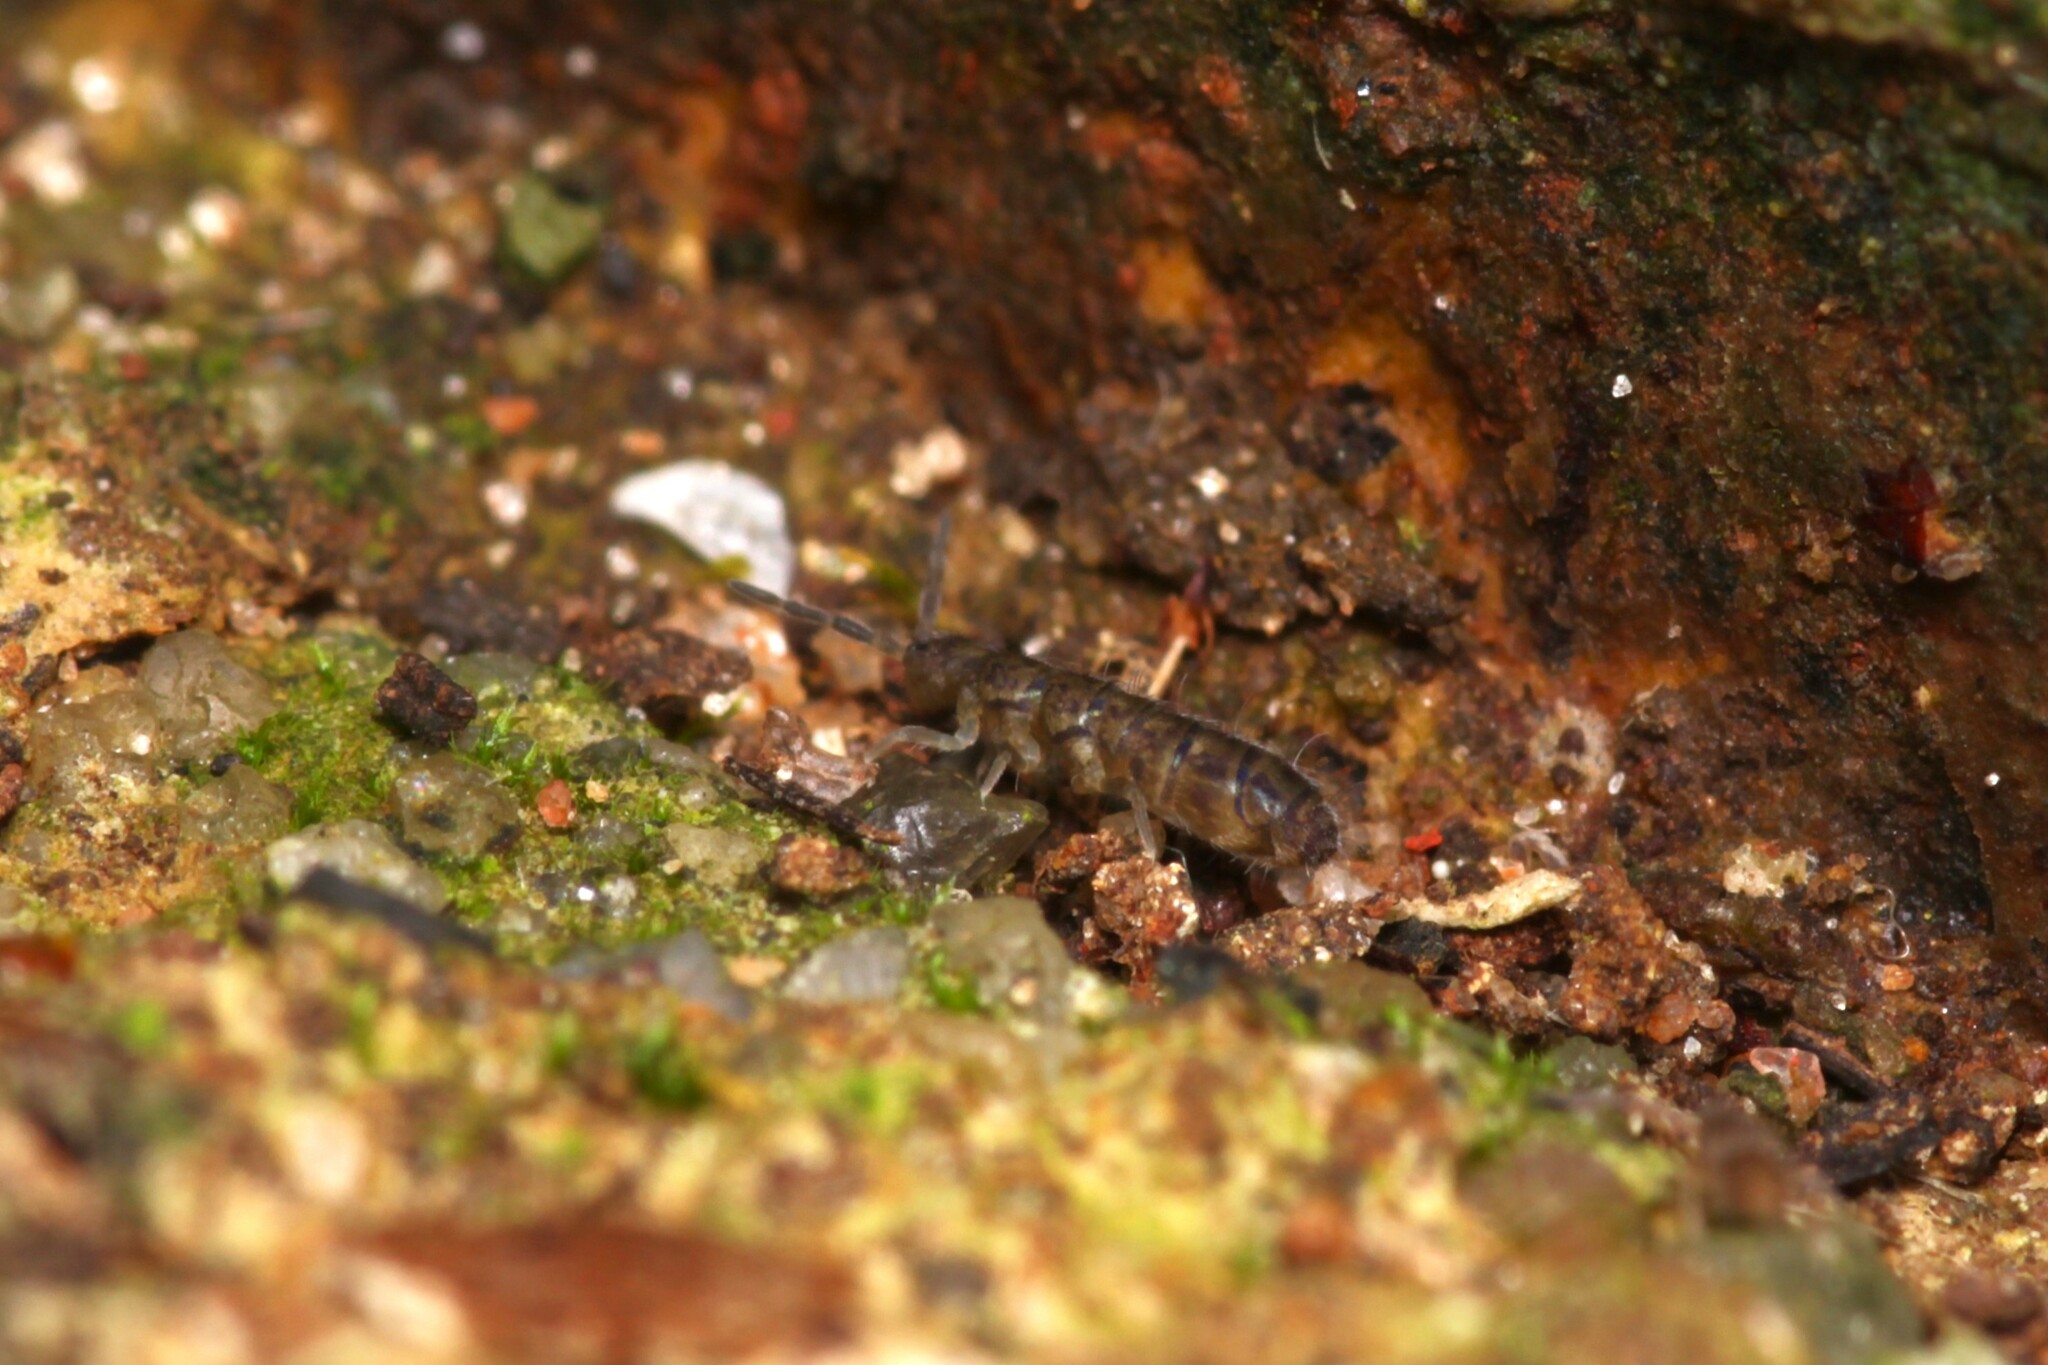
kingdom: Animalia
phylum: Arthropoda
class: Collembola
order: Entomobryomorpha
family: Isotomidae
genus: Isotoma
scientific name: Isotoma delta
